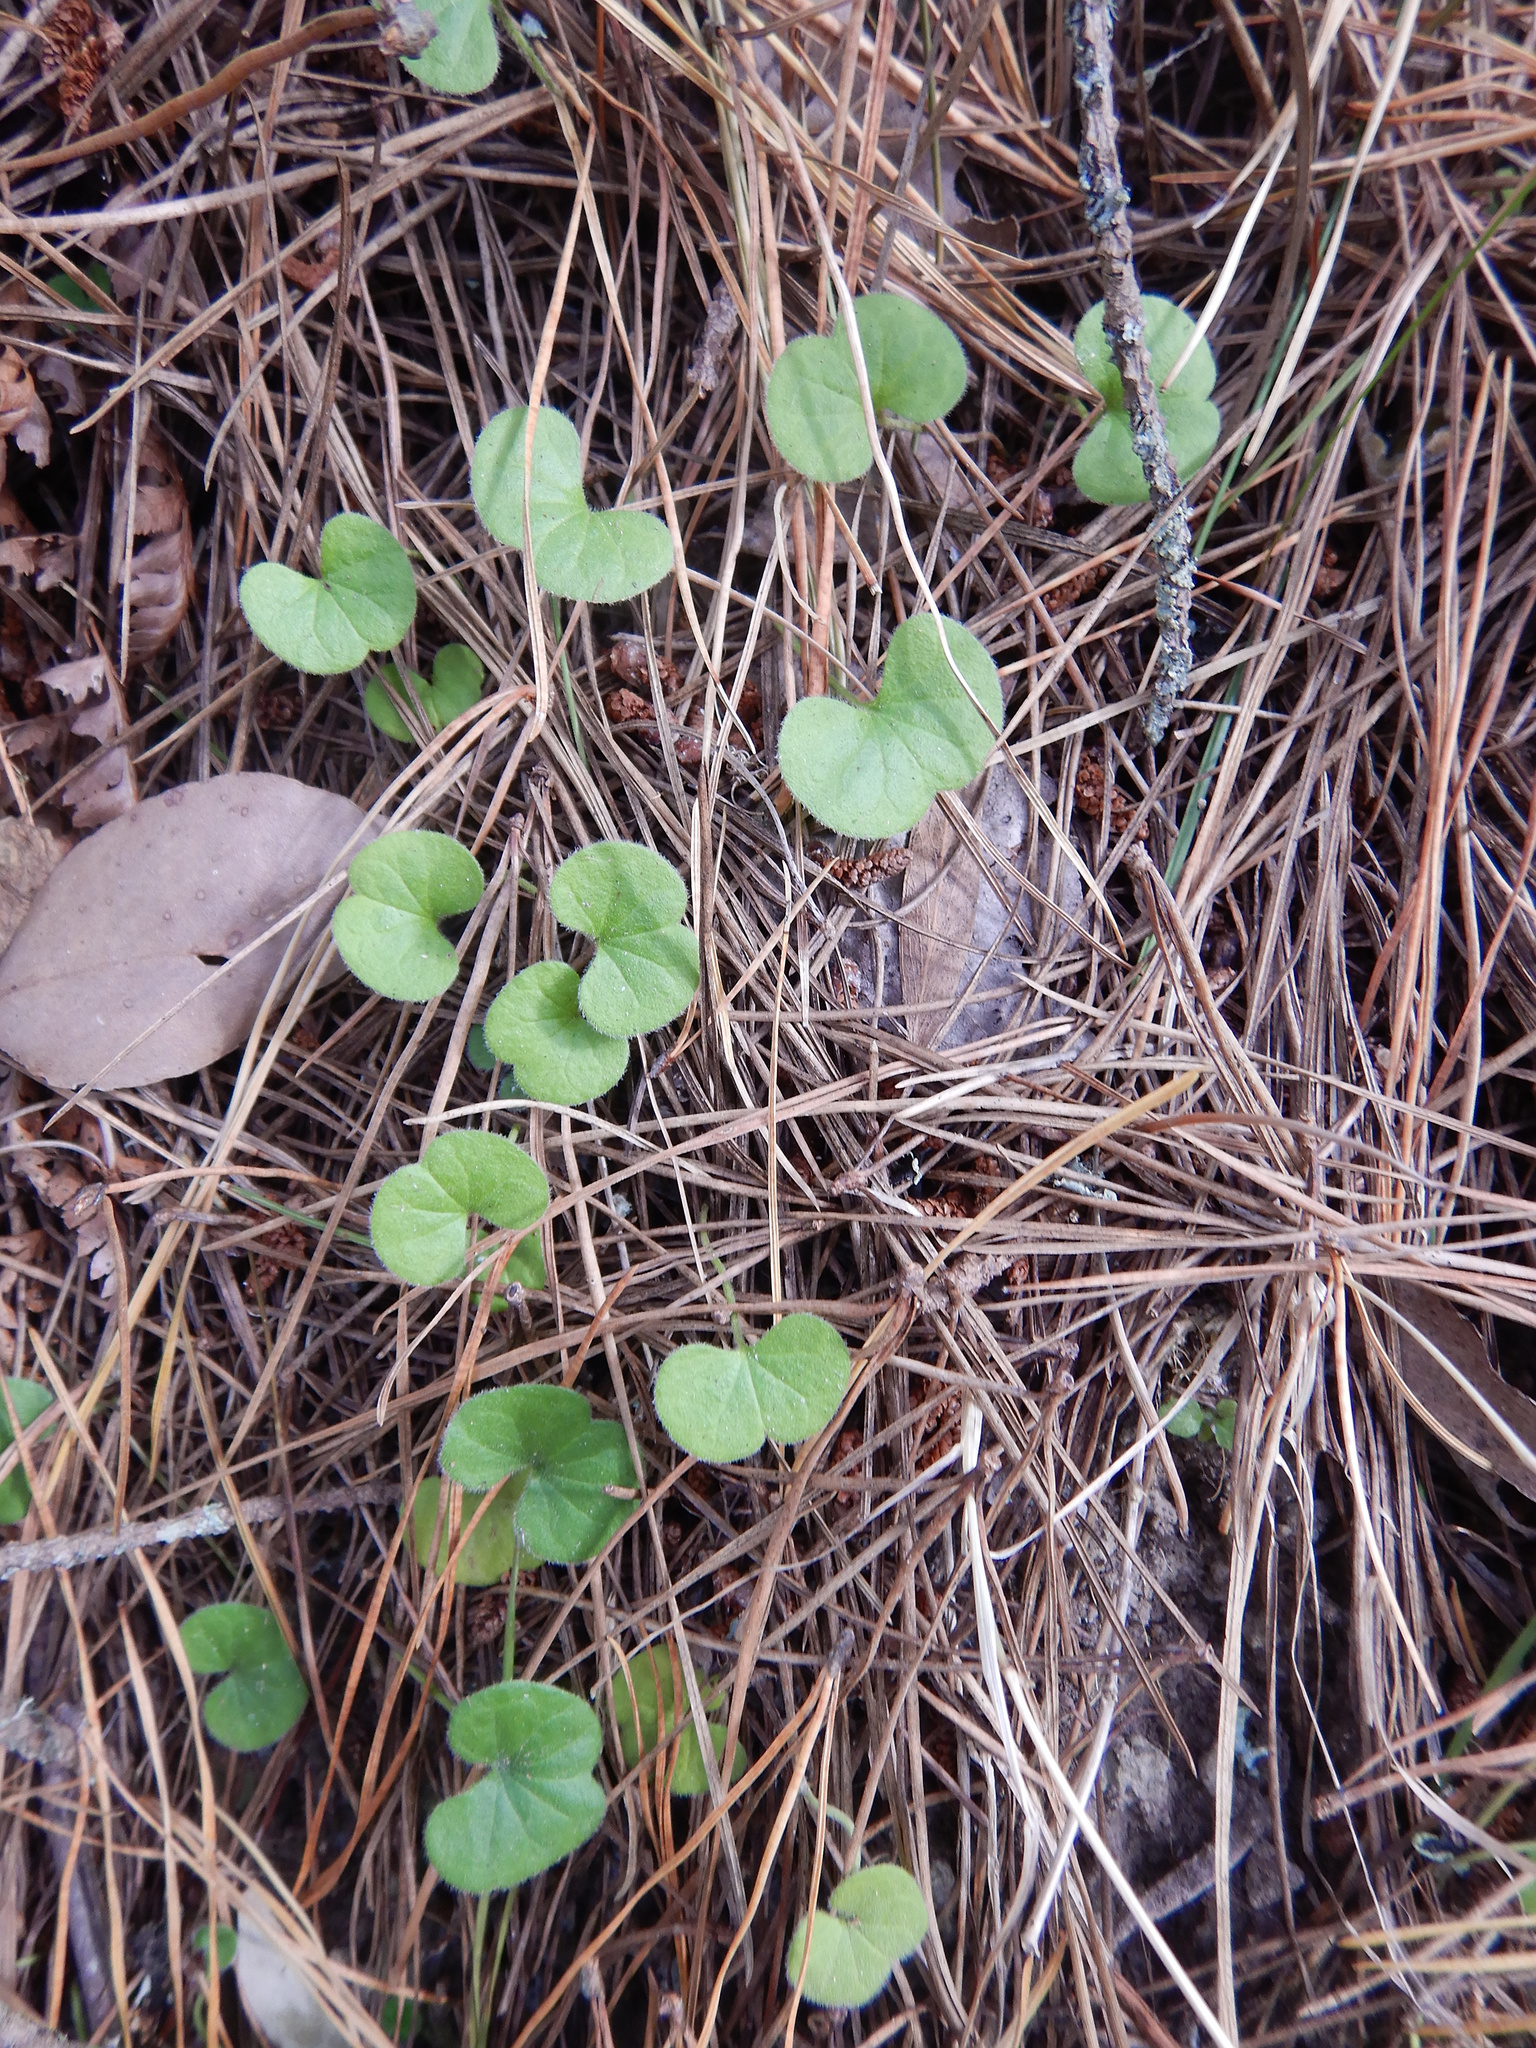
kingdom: Plantae
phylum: Tracheophyta
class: Magnoliopsida
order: Solanales
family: Convolvulaceae
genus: Dichondra
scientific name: Dichondra repens
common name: Kidneyweed
